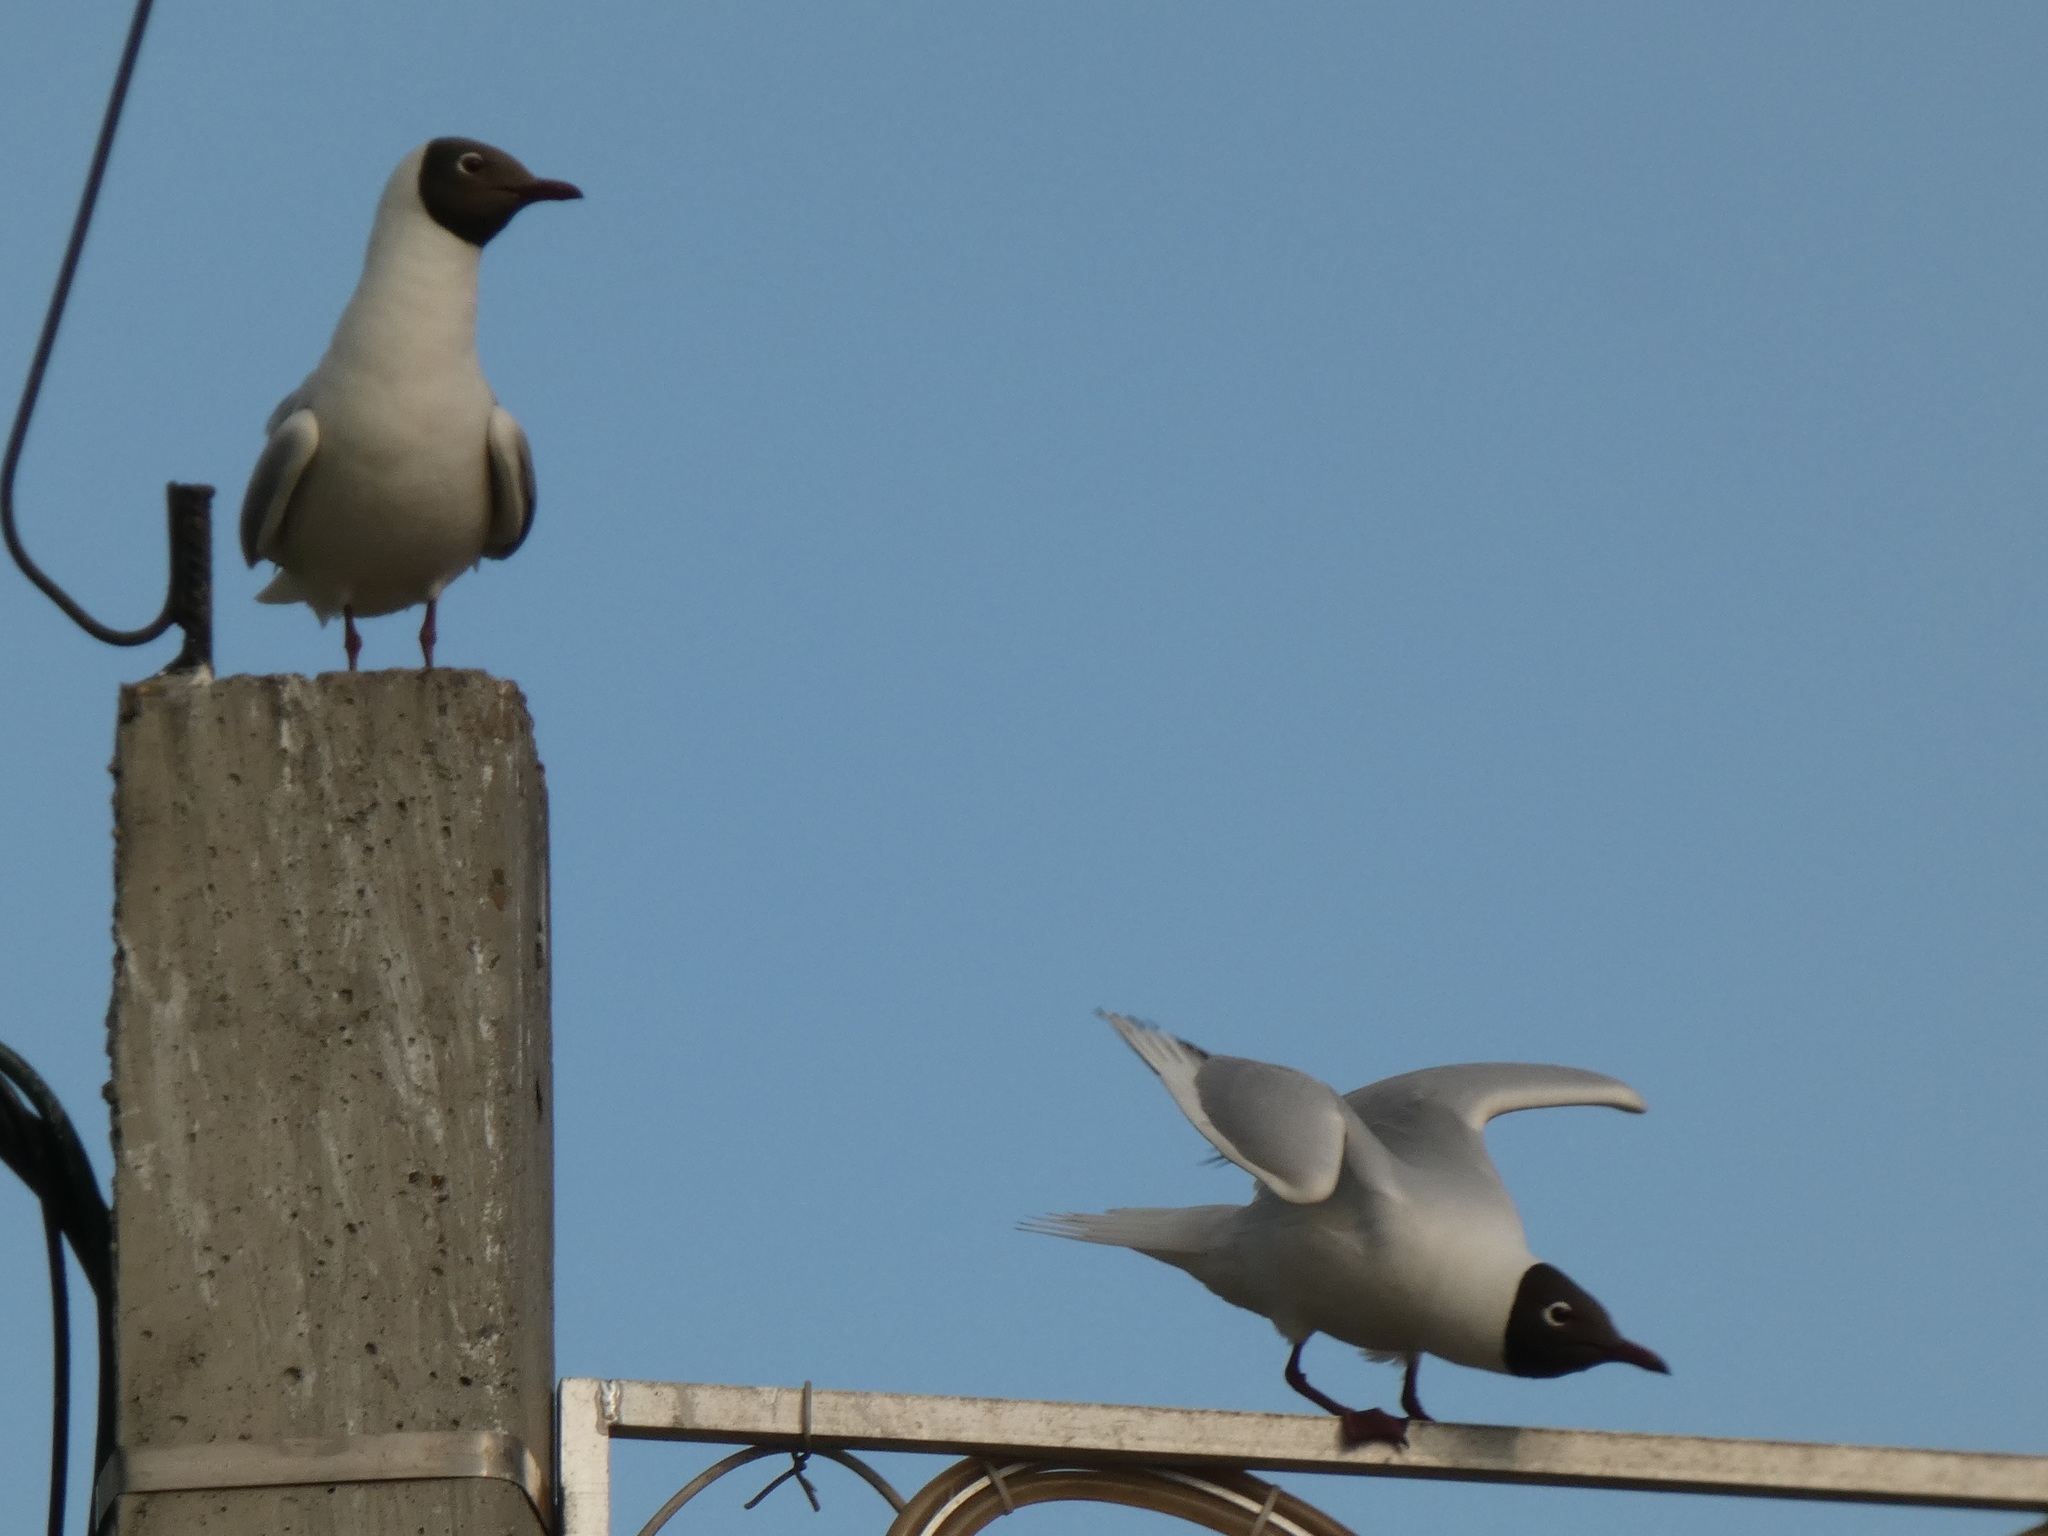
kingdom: Animalia
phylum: Chordata
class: Aves
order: Charadriiformes
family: Laridae
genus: Chroicocephalus
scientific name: Chroicocephalus ridibundus
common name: Black-headed gull
